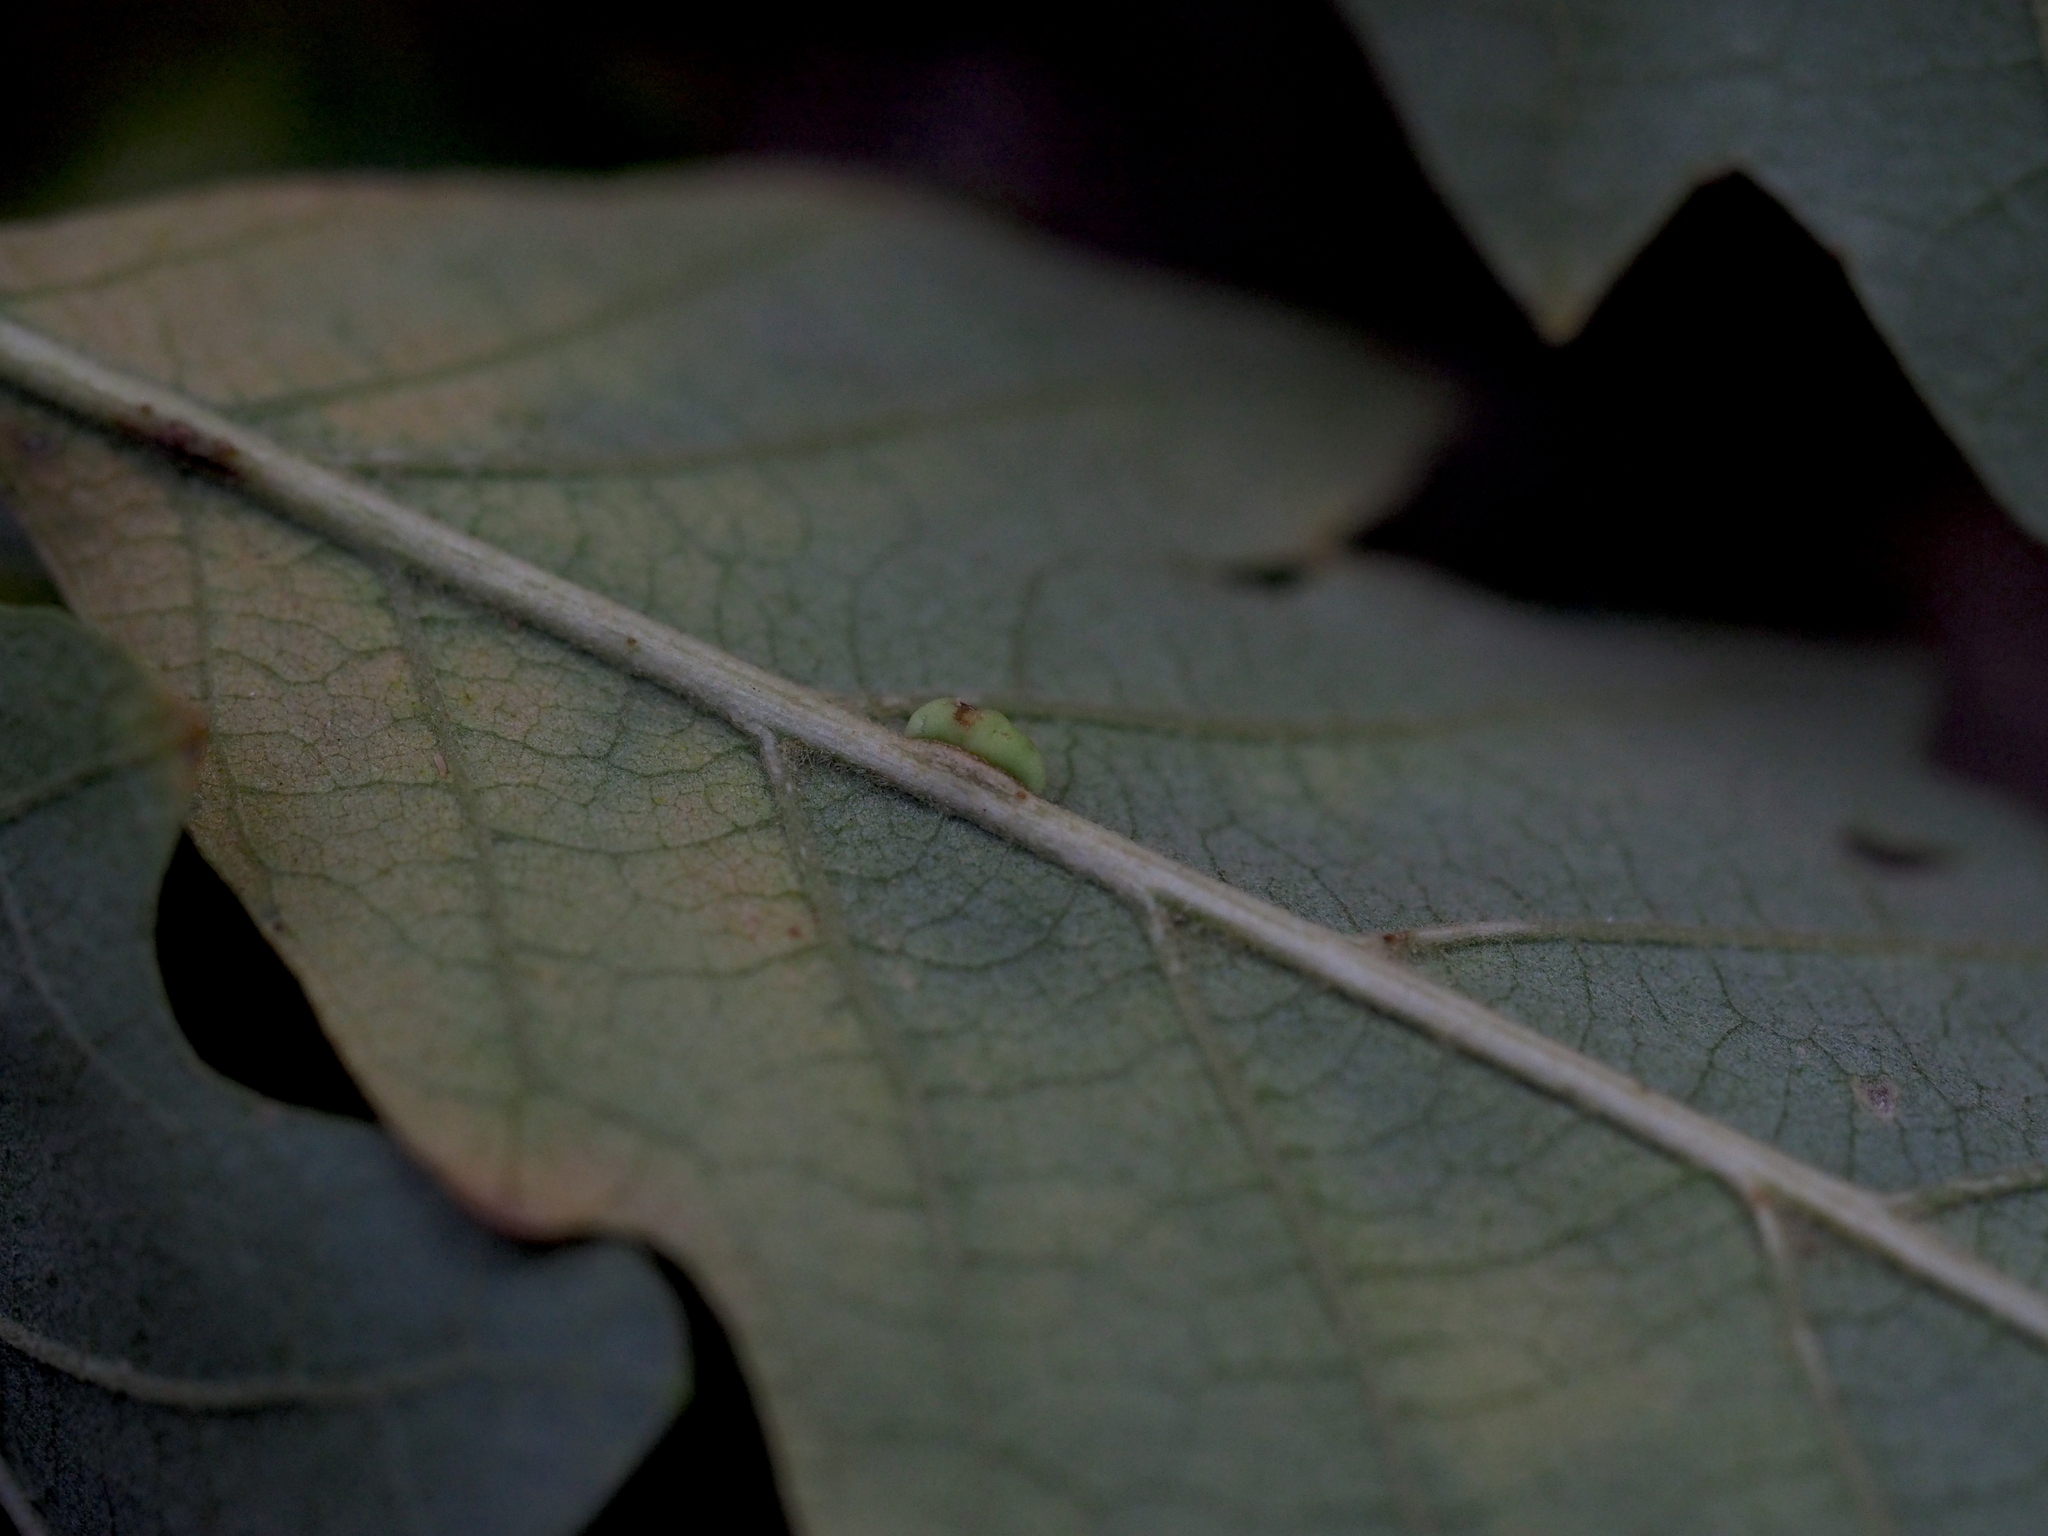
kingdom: Plantae
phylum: Tracheophyta
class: Magnoliopsida
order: Fagales
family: Fagaceae
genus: Quercus
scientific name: Quercus cerris
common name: Turkey oak
